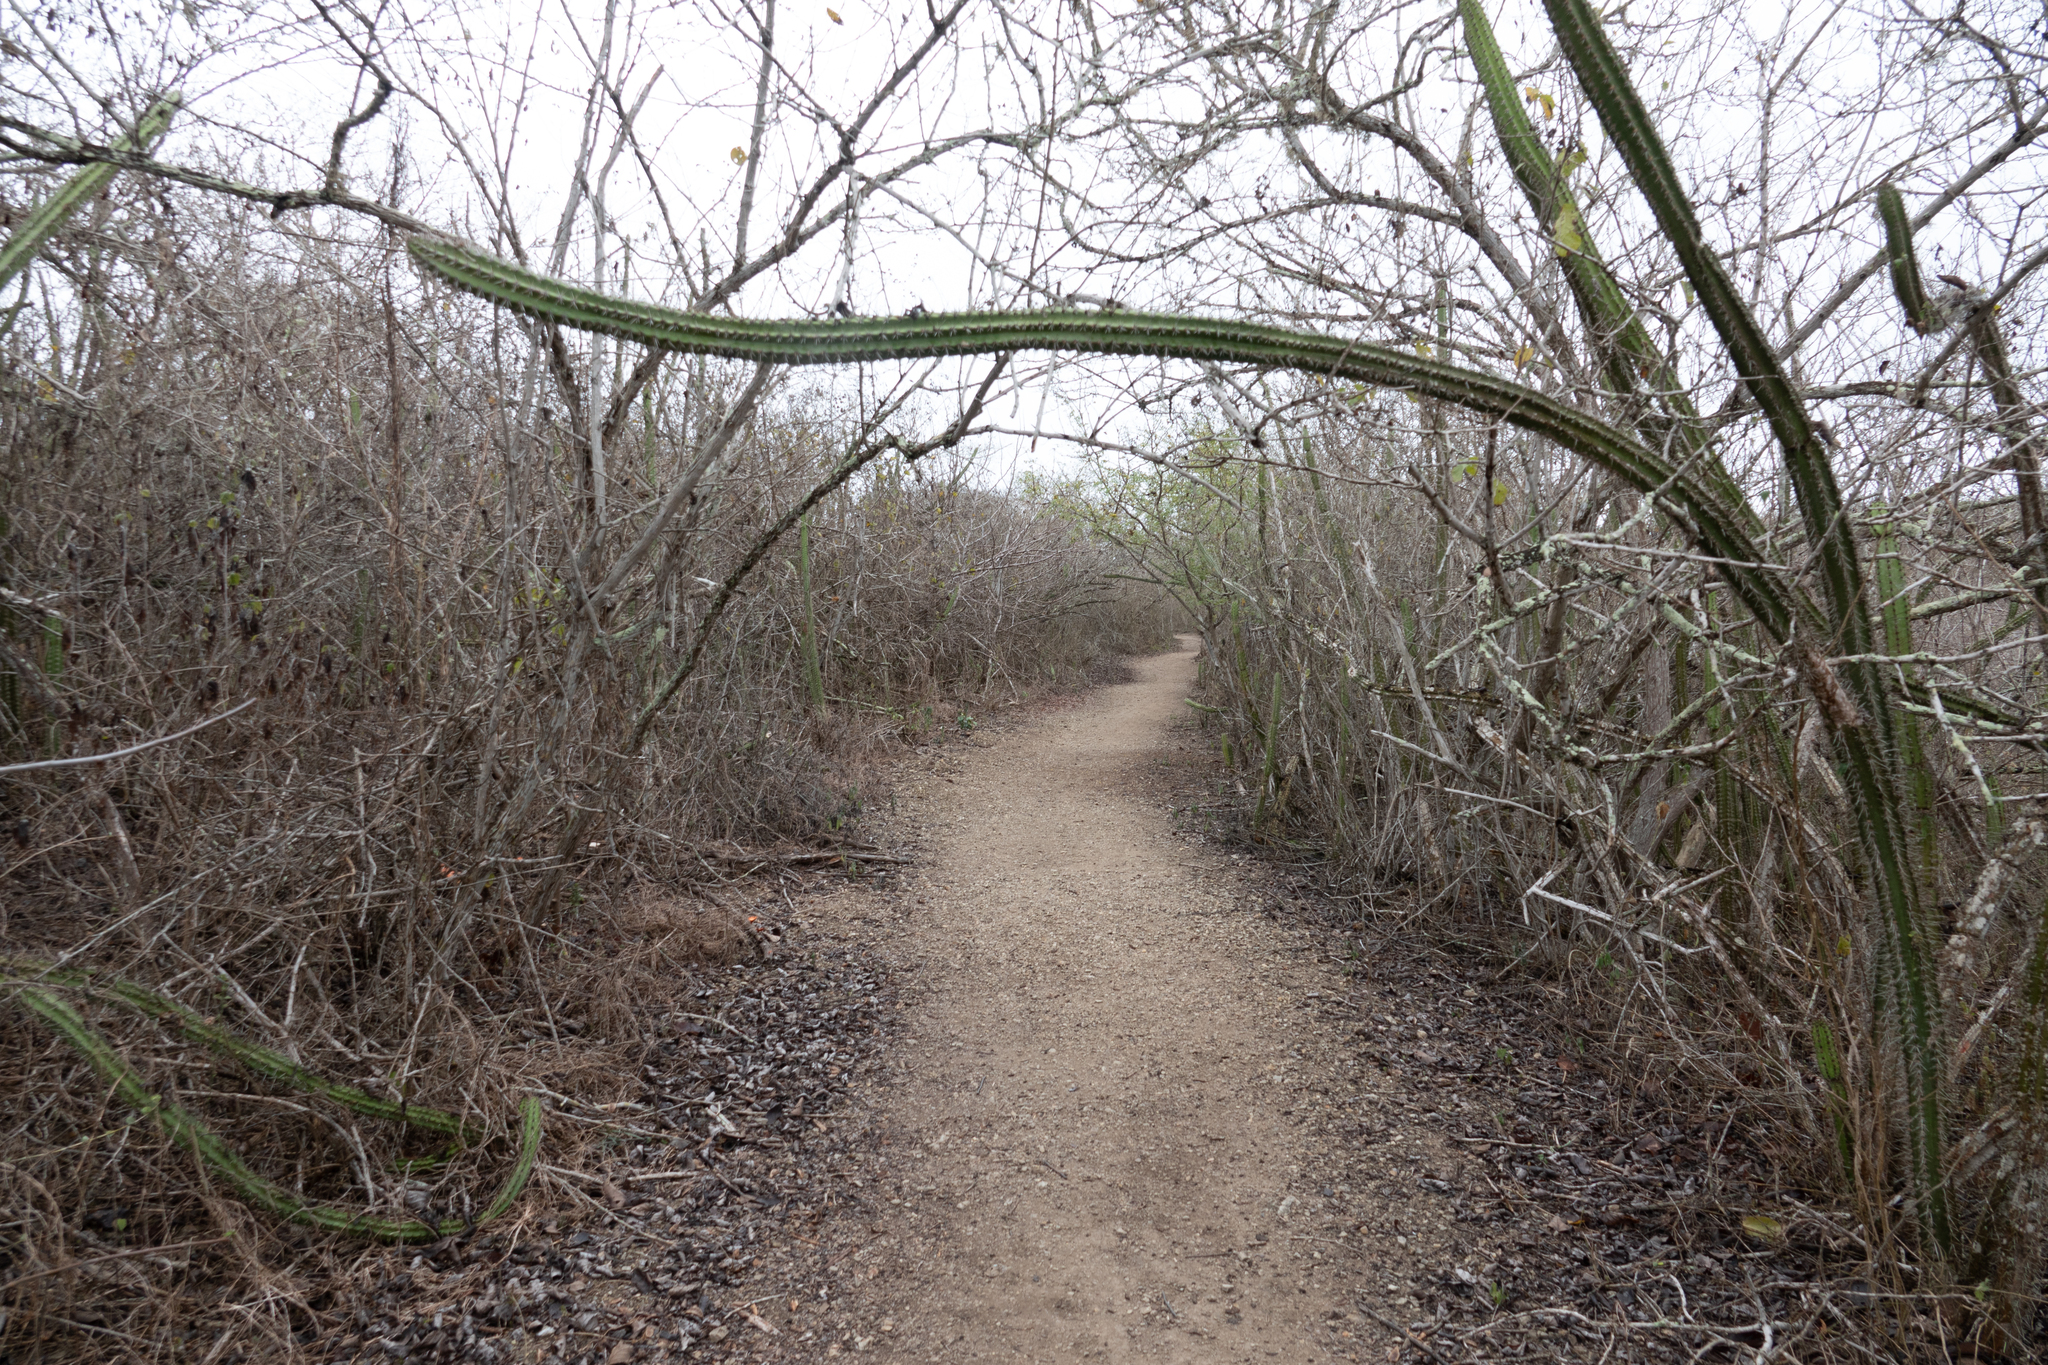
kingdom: Plantae
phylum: Tracheophyta
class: Magnoliopsida
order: Caryophyllales
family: Cactaceae
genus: Praecereus
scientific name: Praecereus euchlorus
